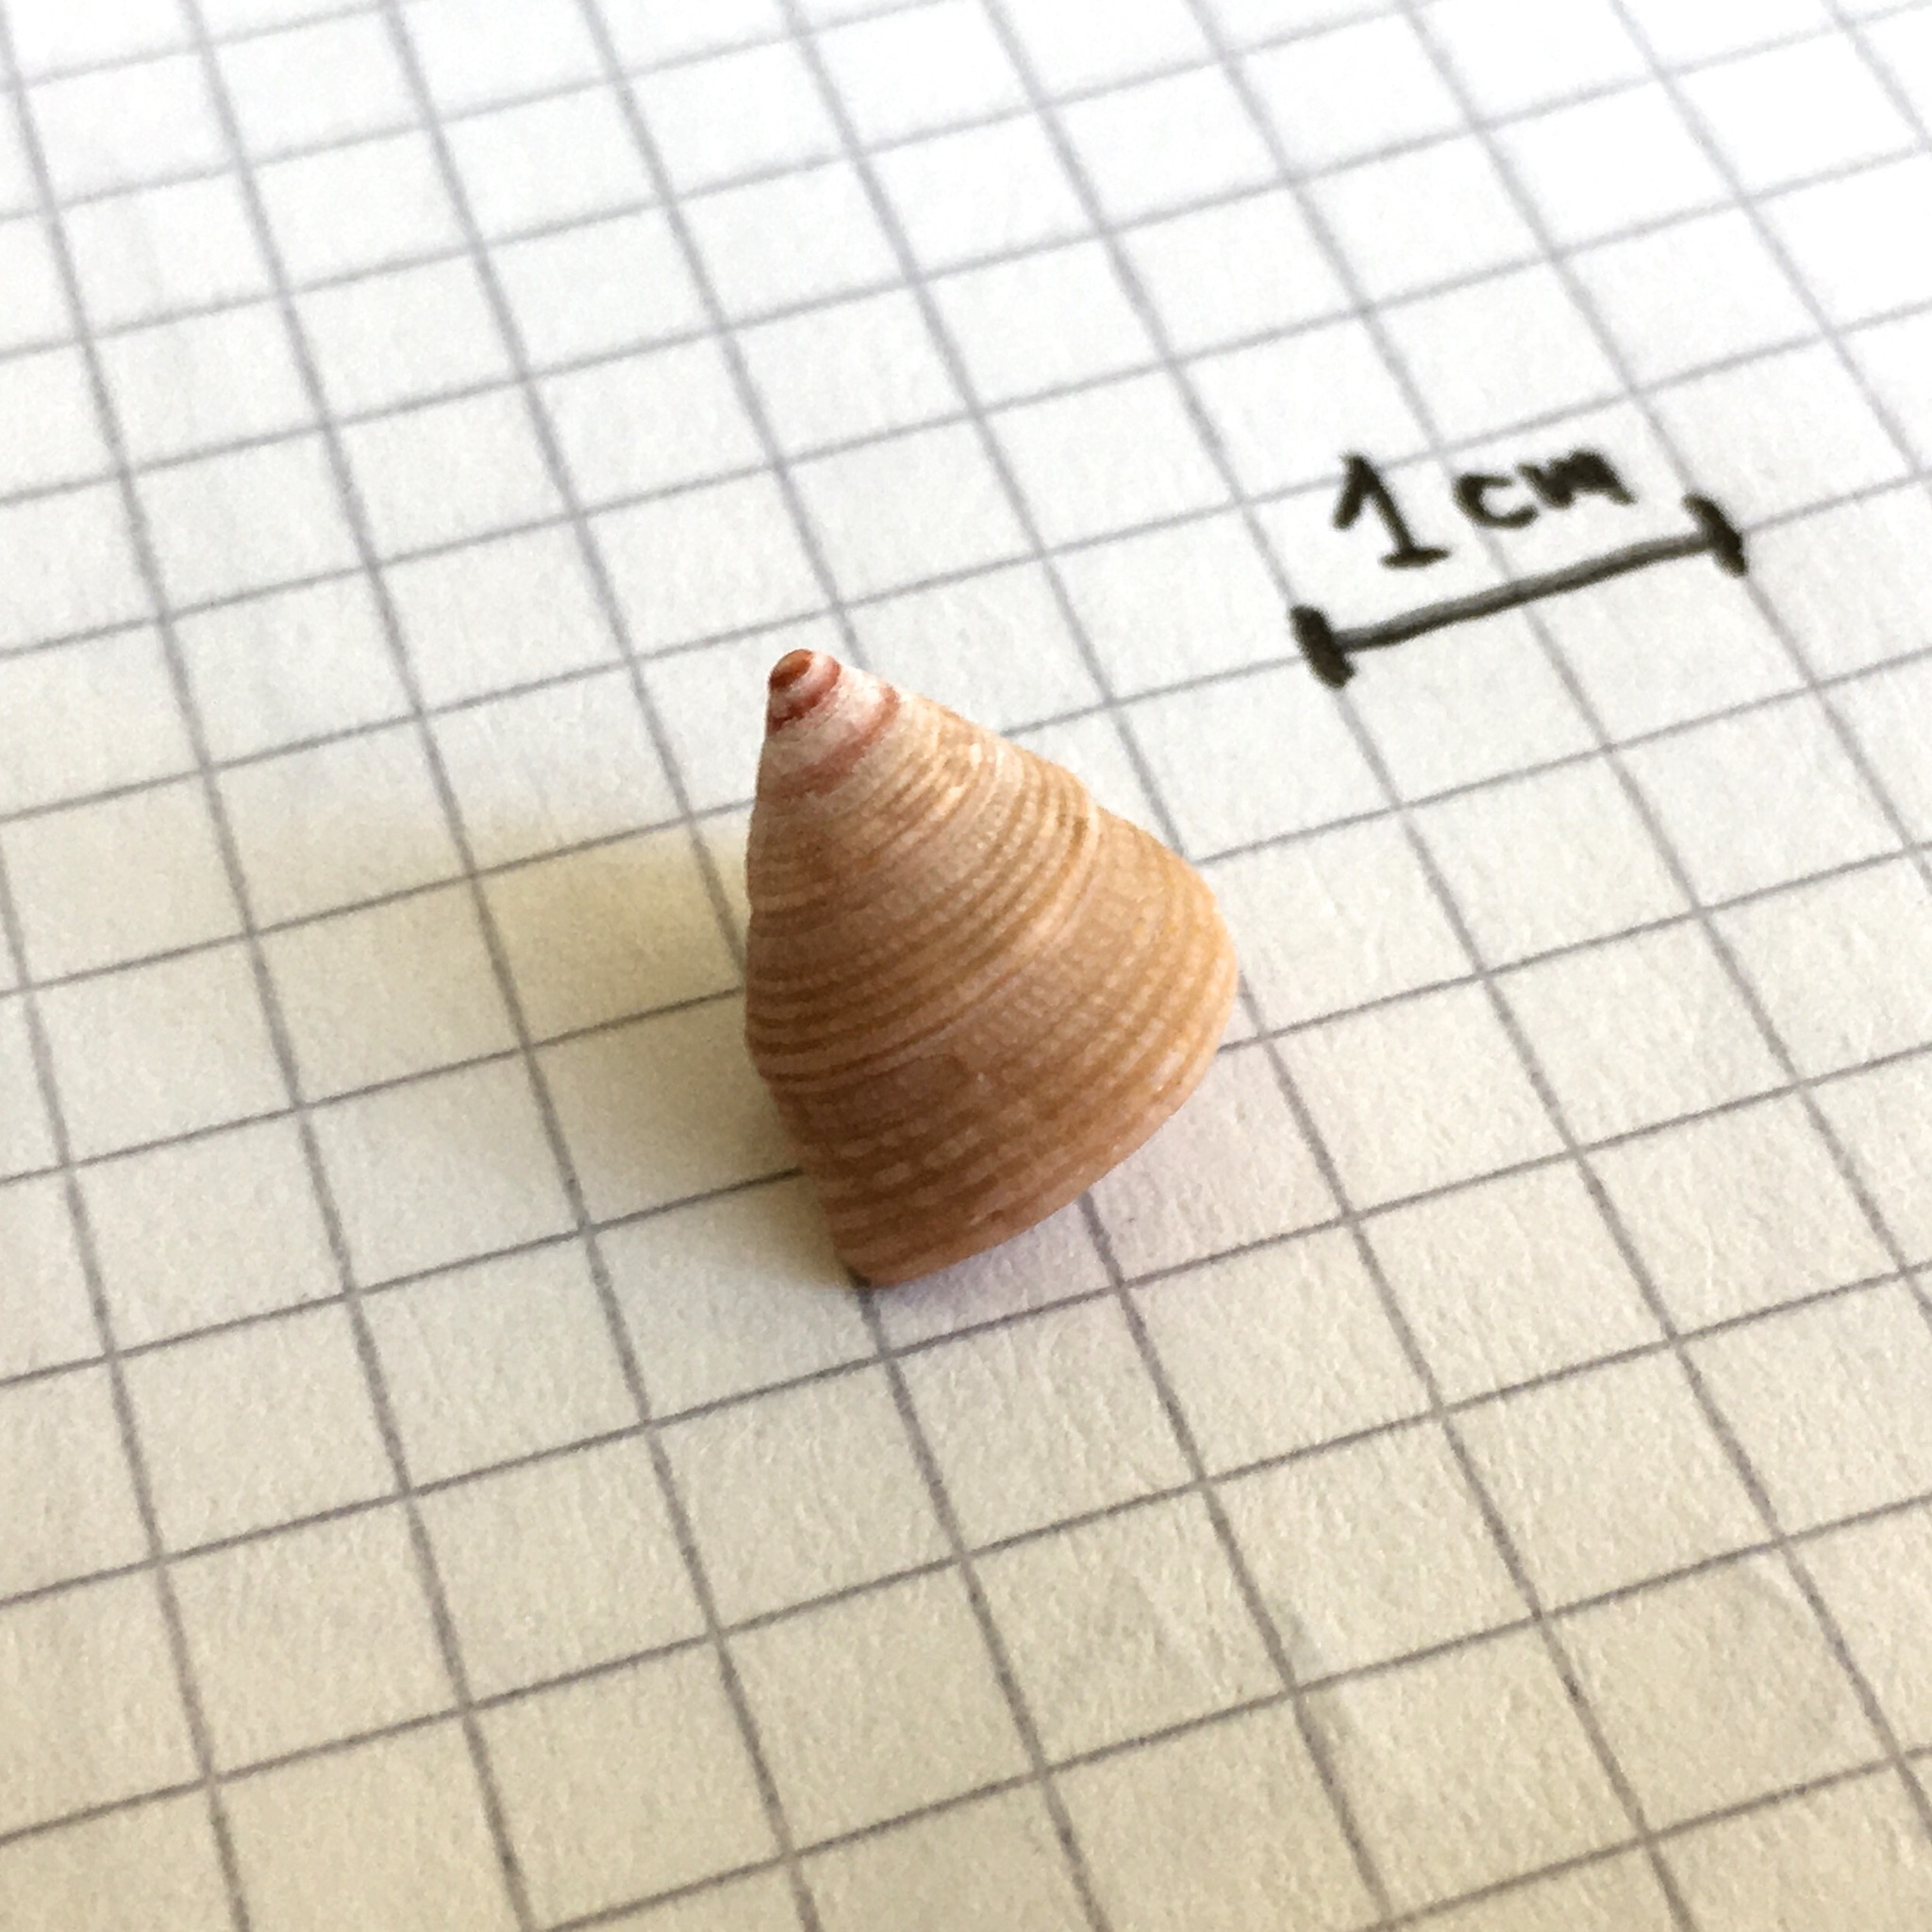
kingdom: Animalia
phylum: Mollusca
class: Gastropoda
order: Trochida
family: Calliostomatidae
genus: Calliostoma
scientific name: Calliostoma jucundum
